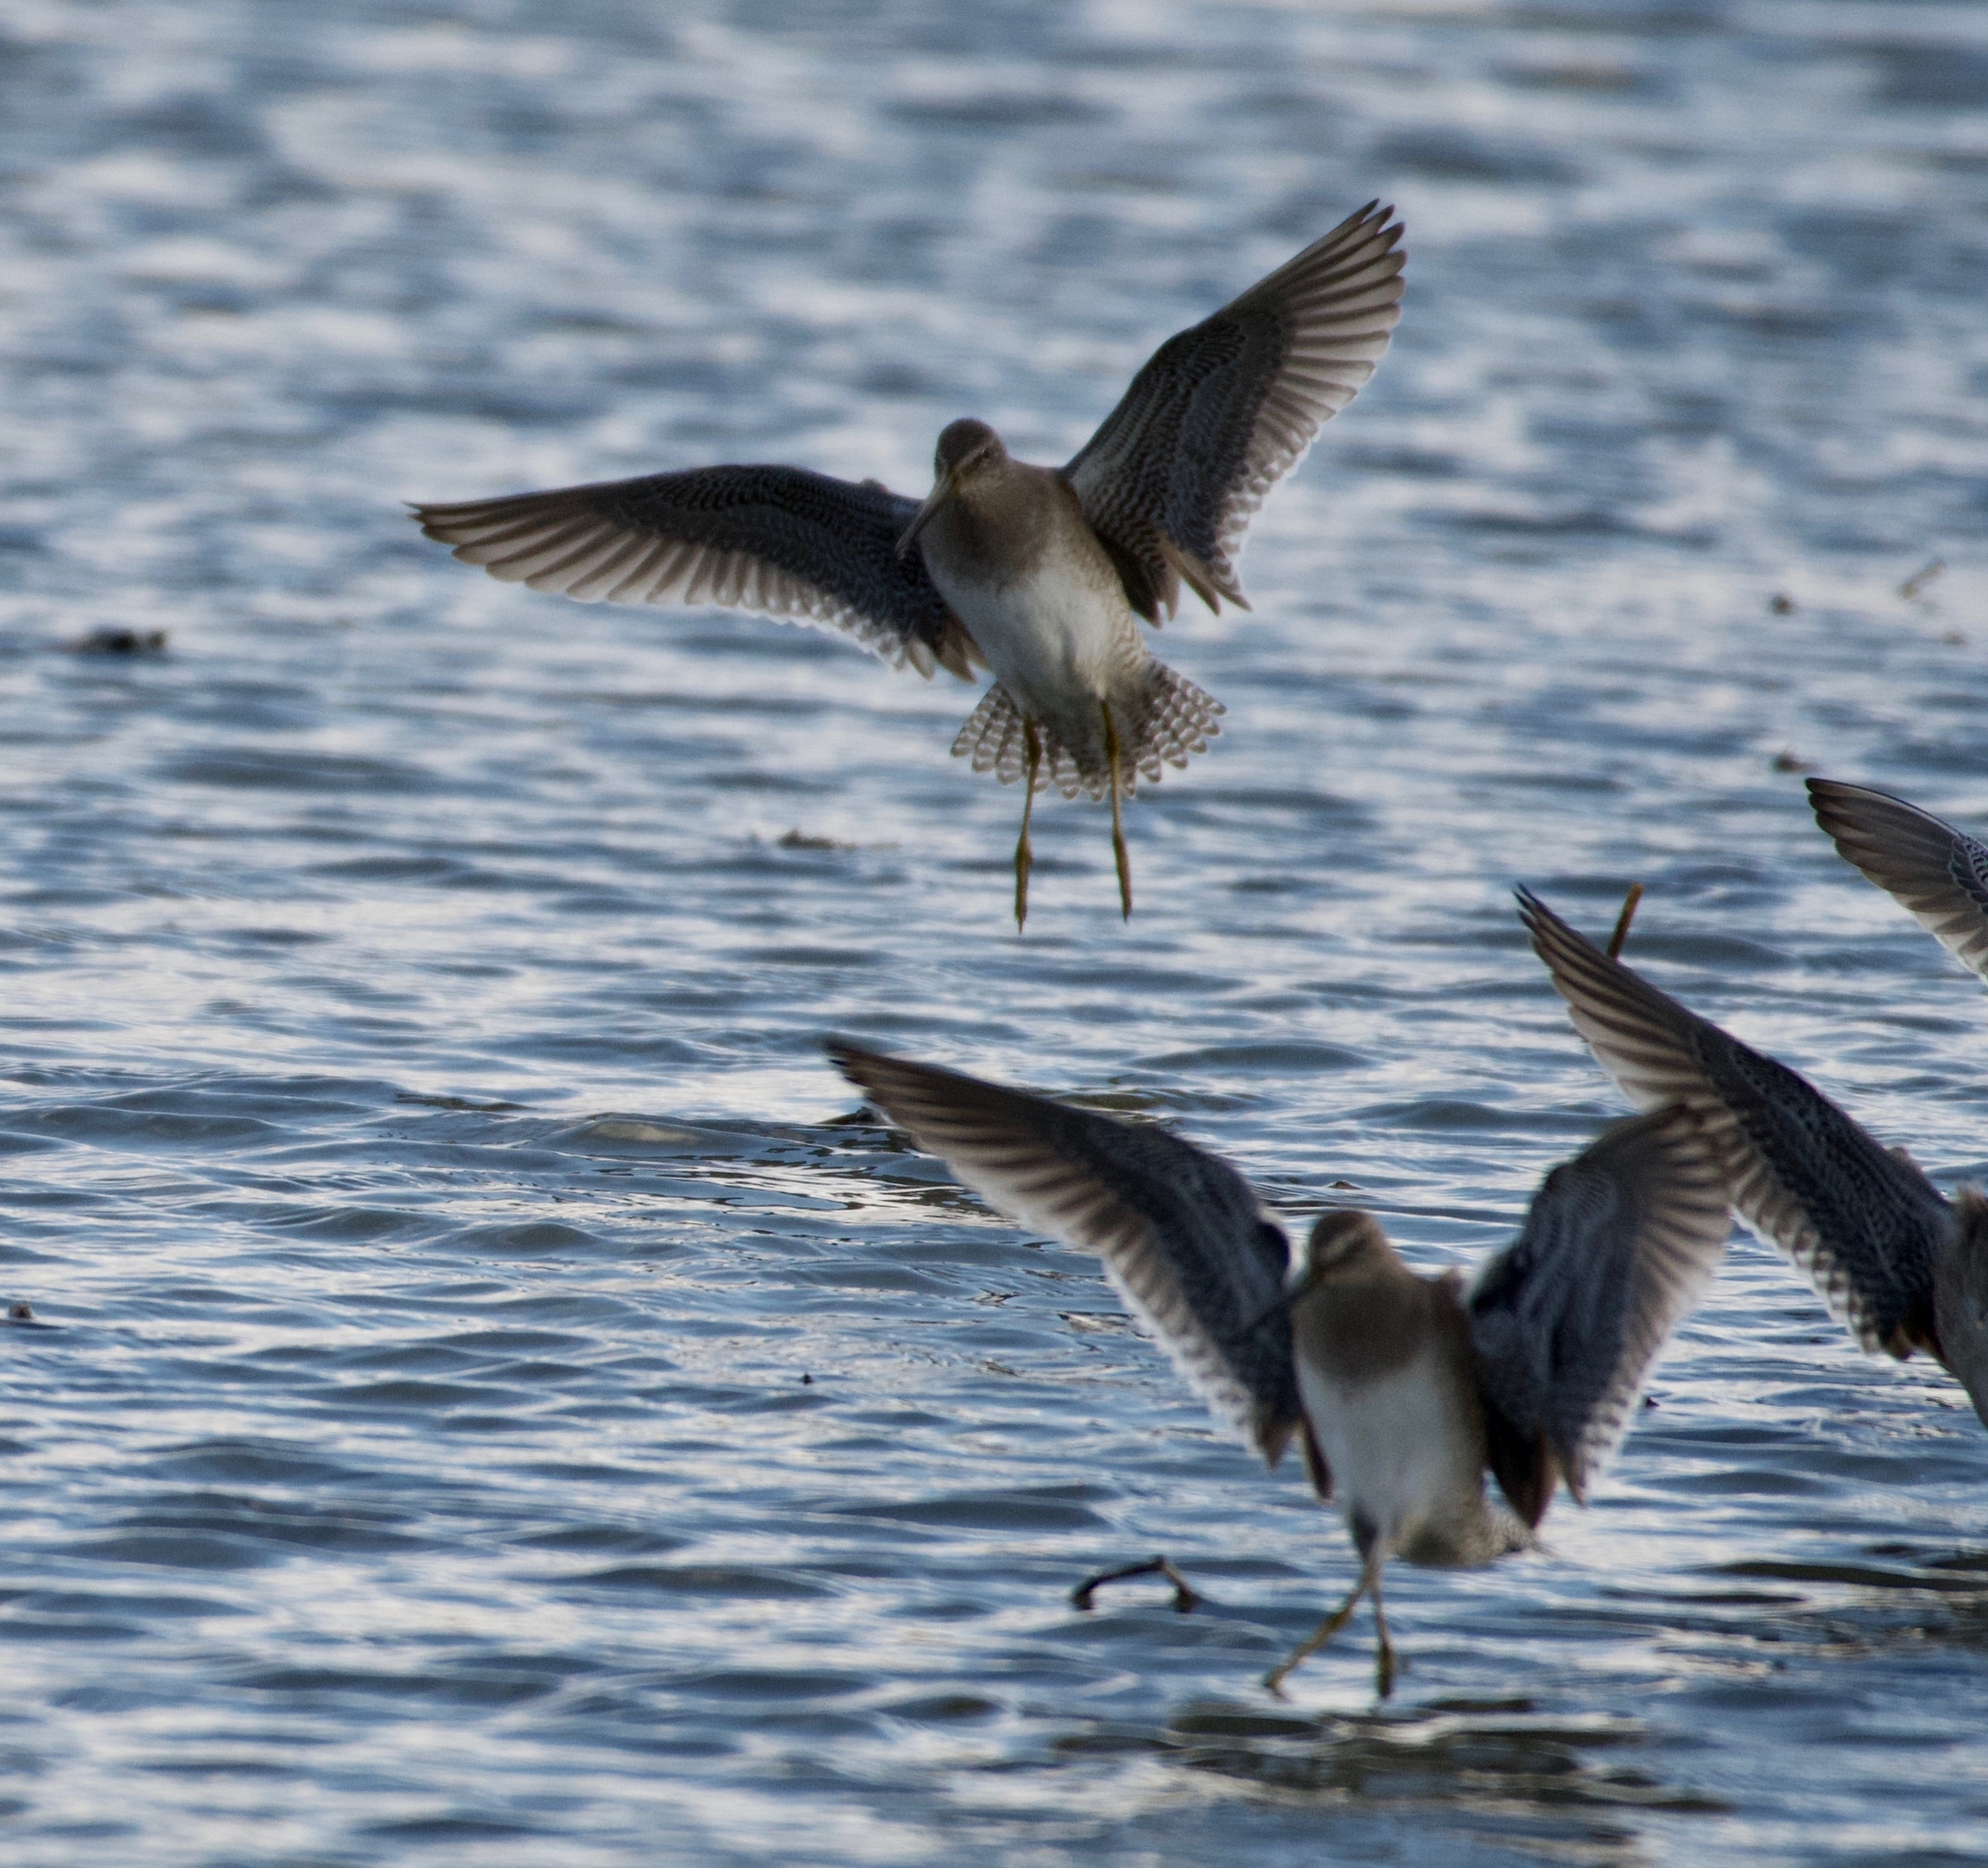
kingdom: Animalia
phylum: Chordata
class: Aves
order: Charadriiformes
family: Scolopacidae
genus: Limnodromus
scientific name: Limnodromus scolopaceus
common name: Long-billed dowitcher
